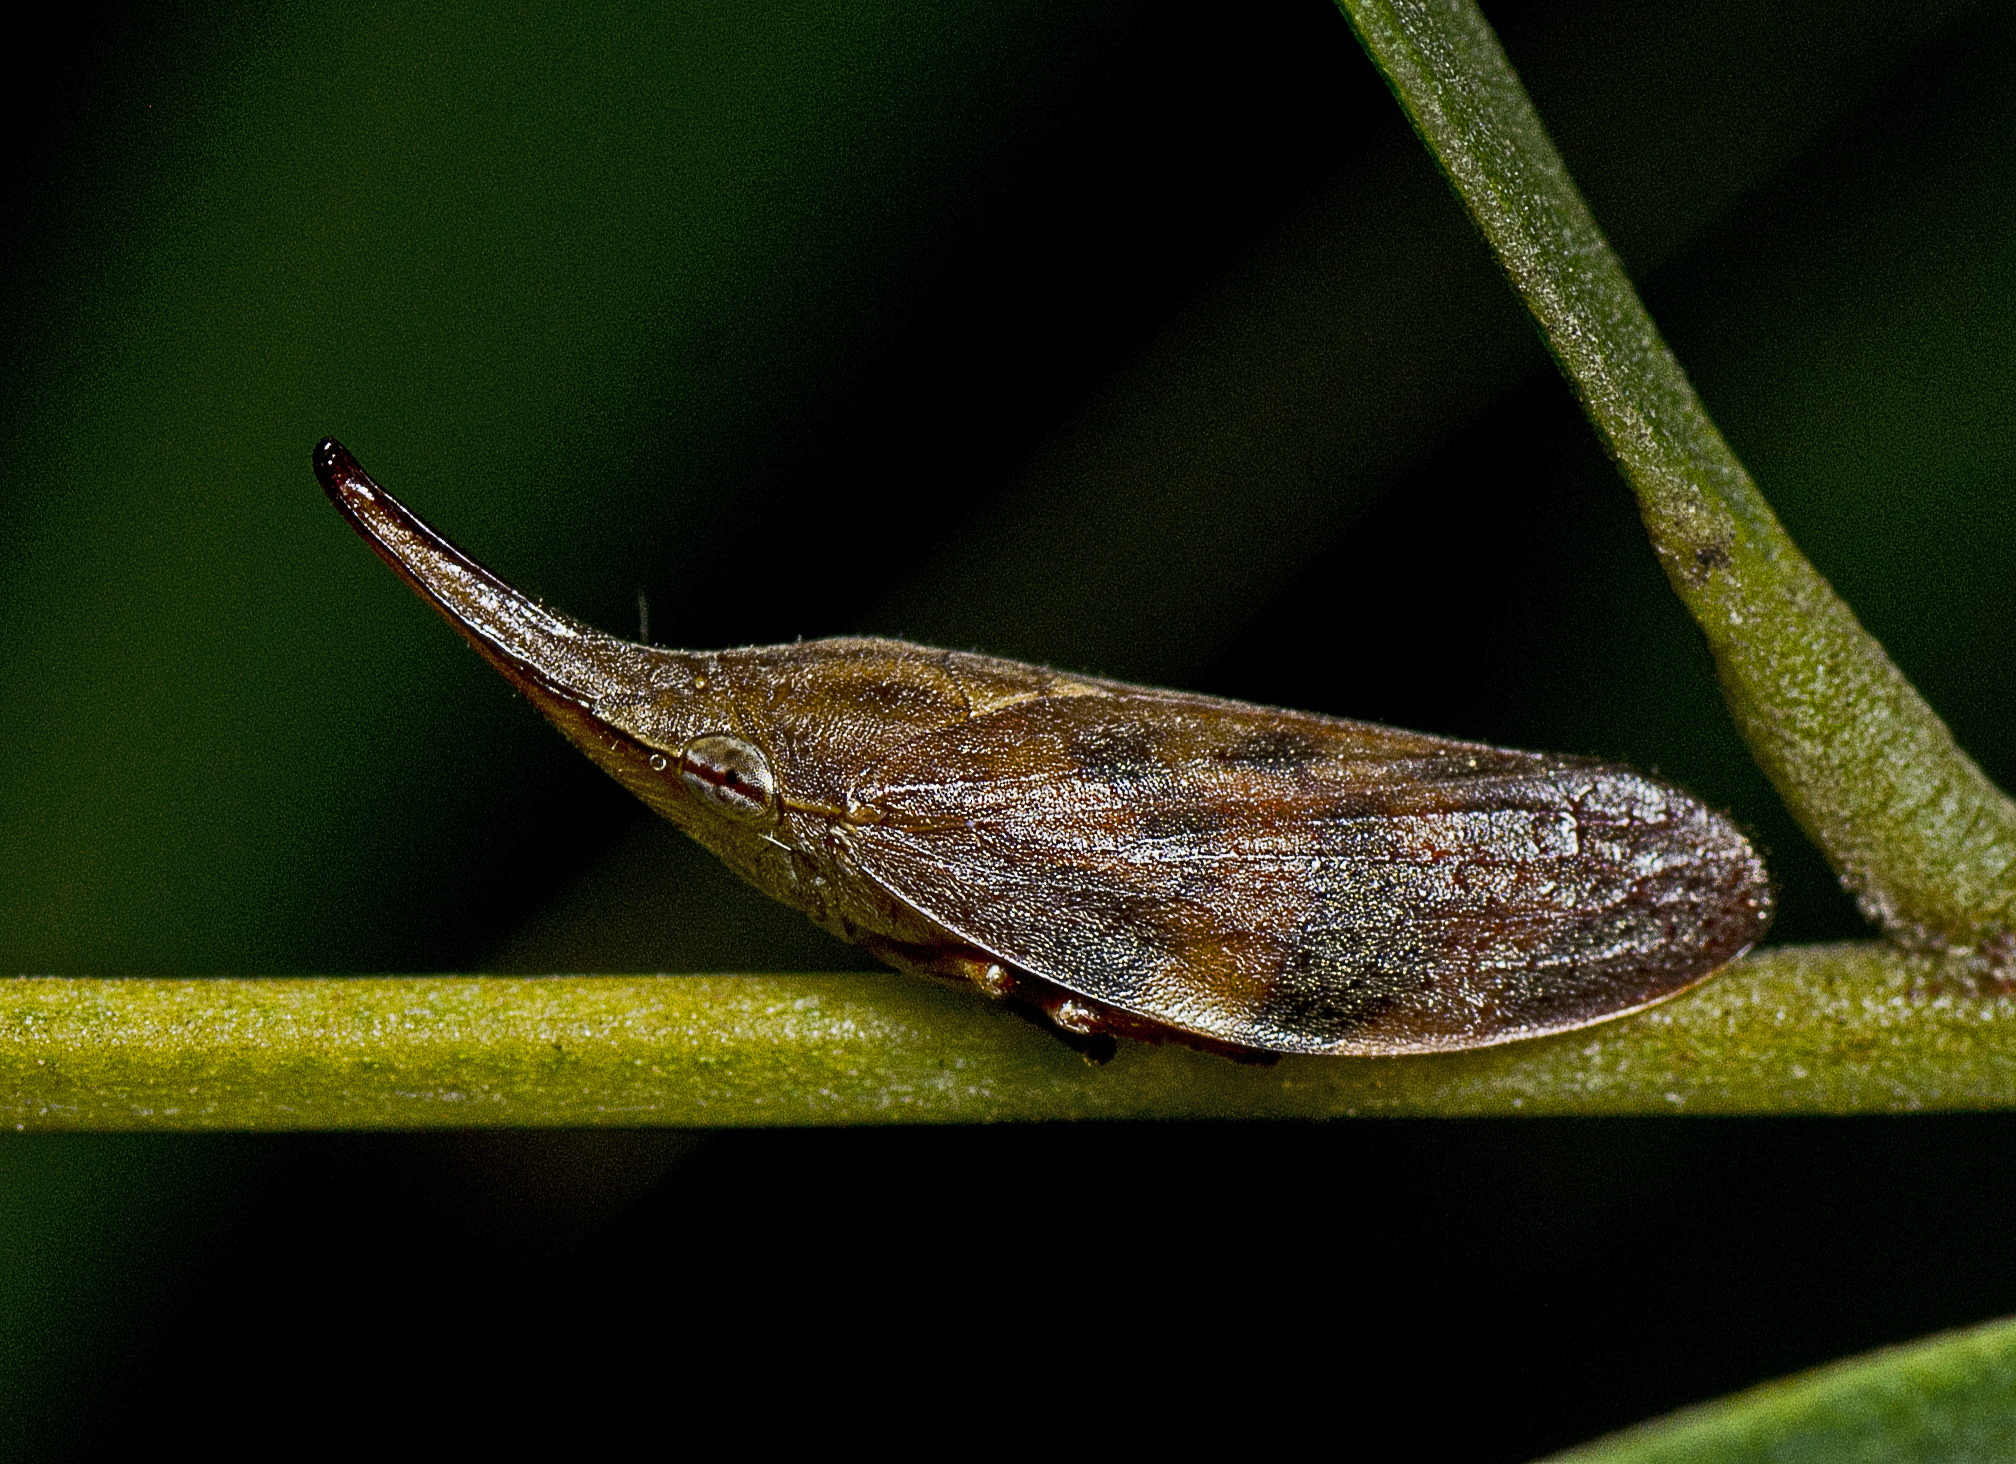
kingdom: Animalia
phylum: Arthropoda
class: Insecta
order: Hemiptera
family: Aphrophoridae
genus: Philagra
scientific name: Philagra parva
